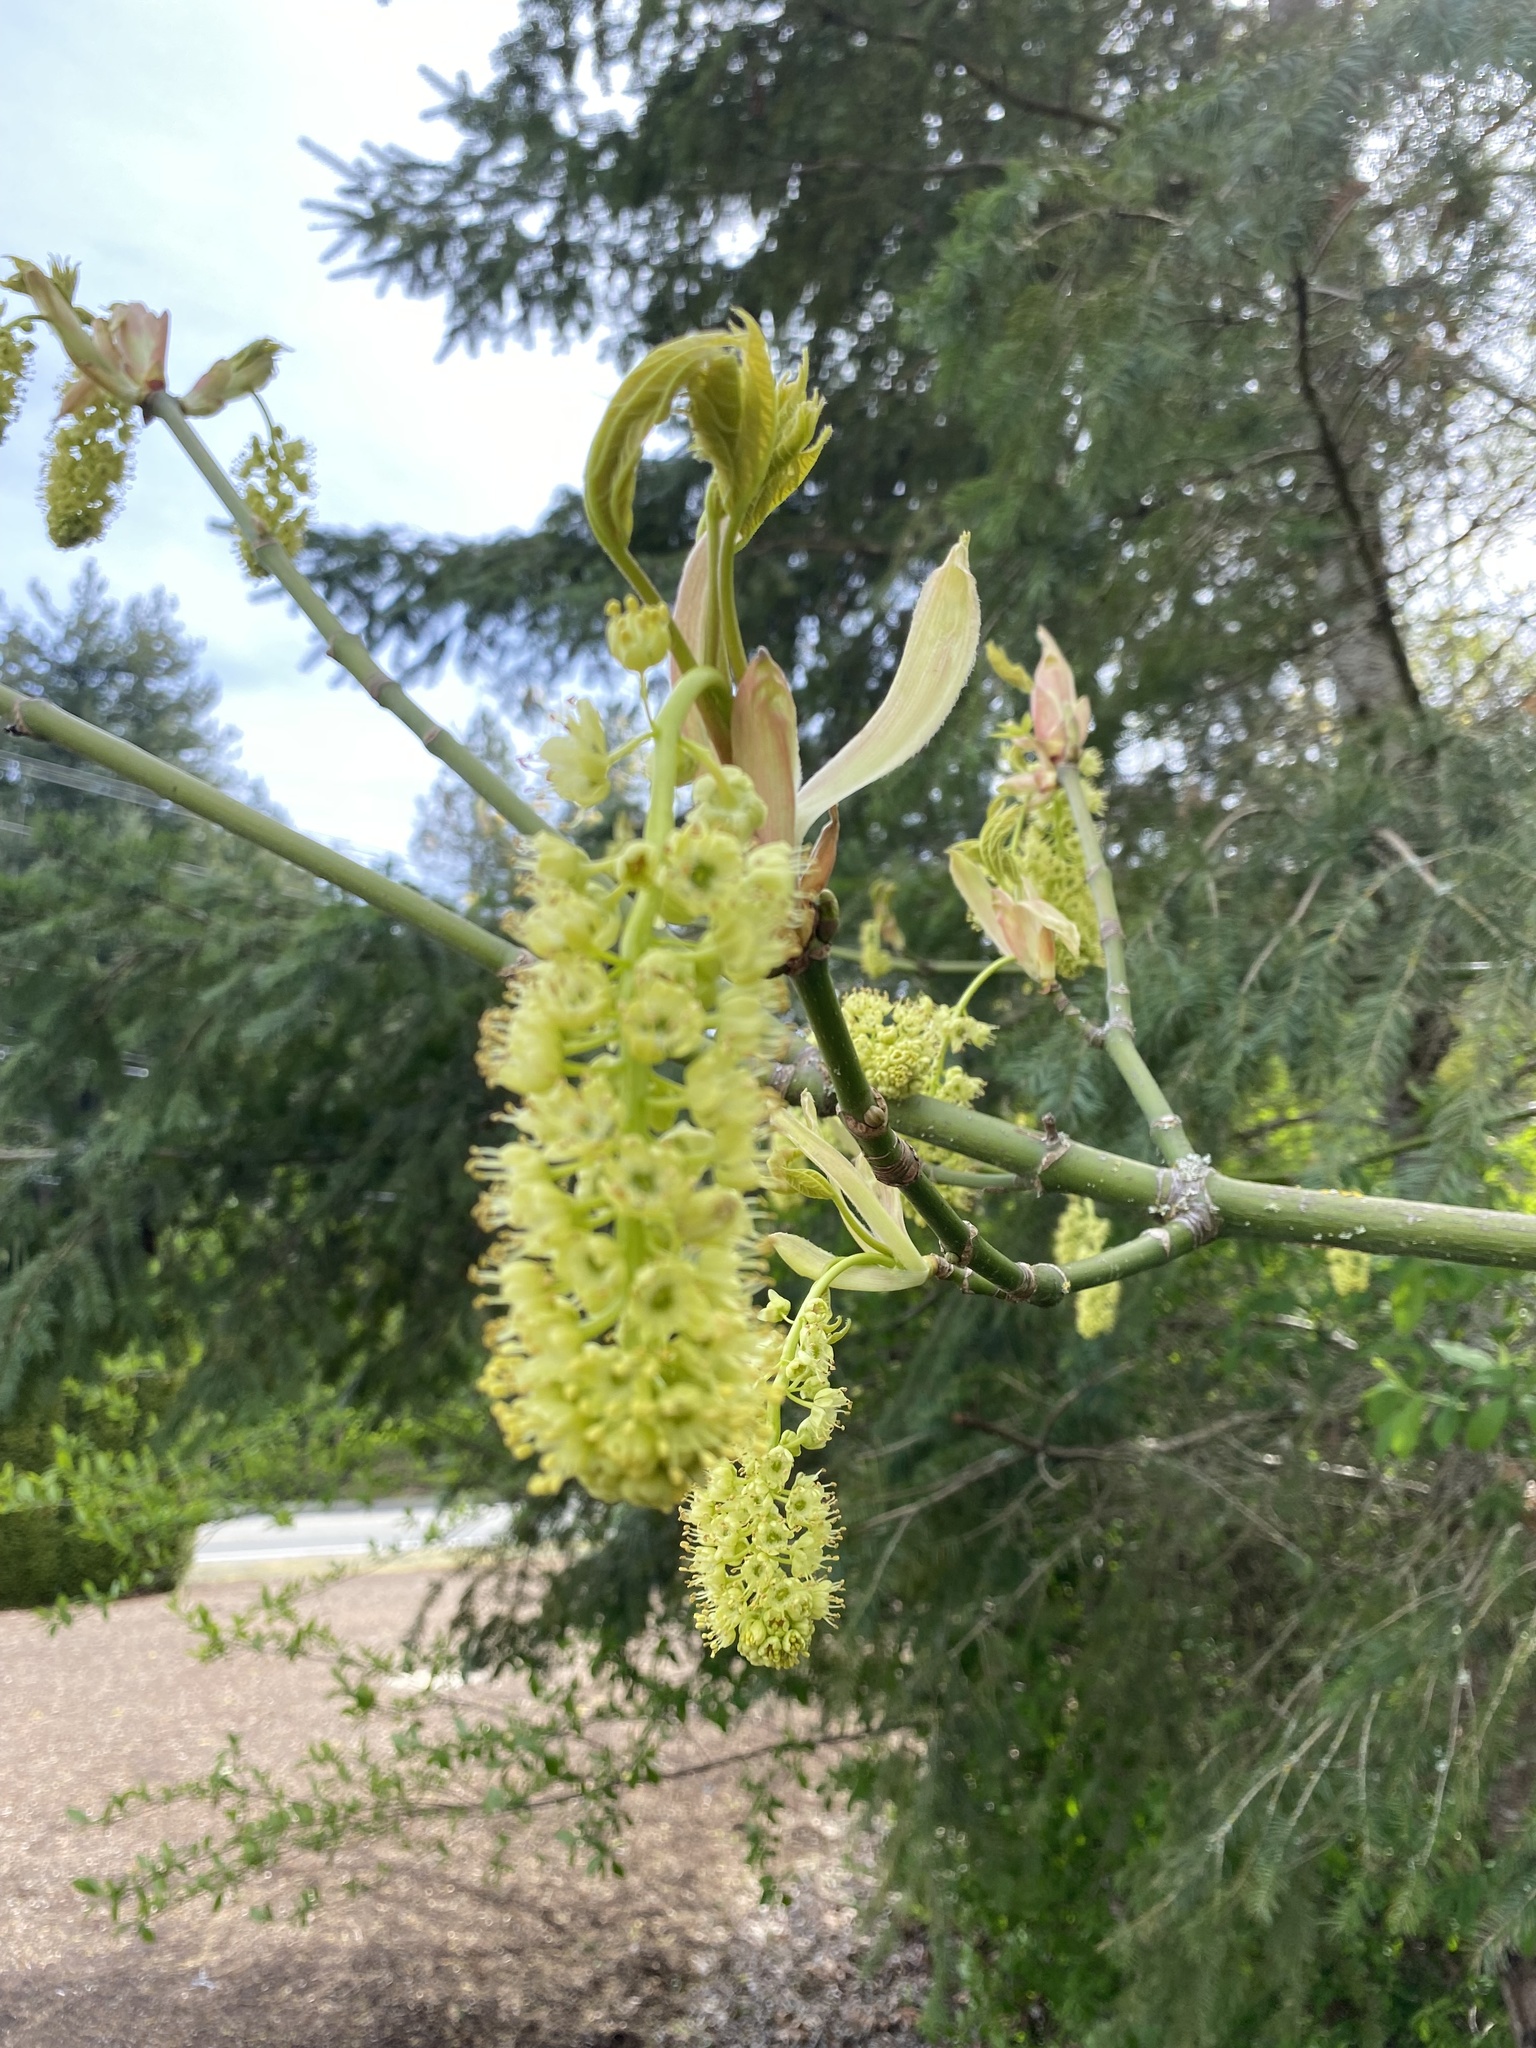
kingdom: Plantae
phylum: Tracheophyta
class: Magnoliopsida
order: Sapindales
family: Sapindaceae
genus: Acer
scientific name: Acer macrophyllum
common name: Oregon maple
